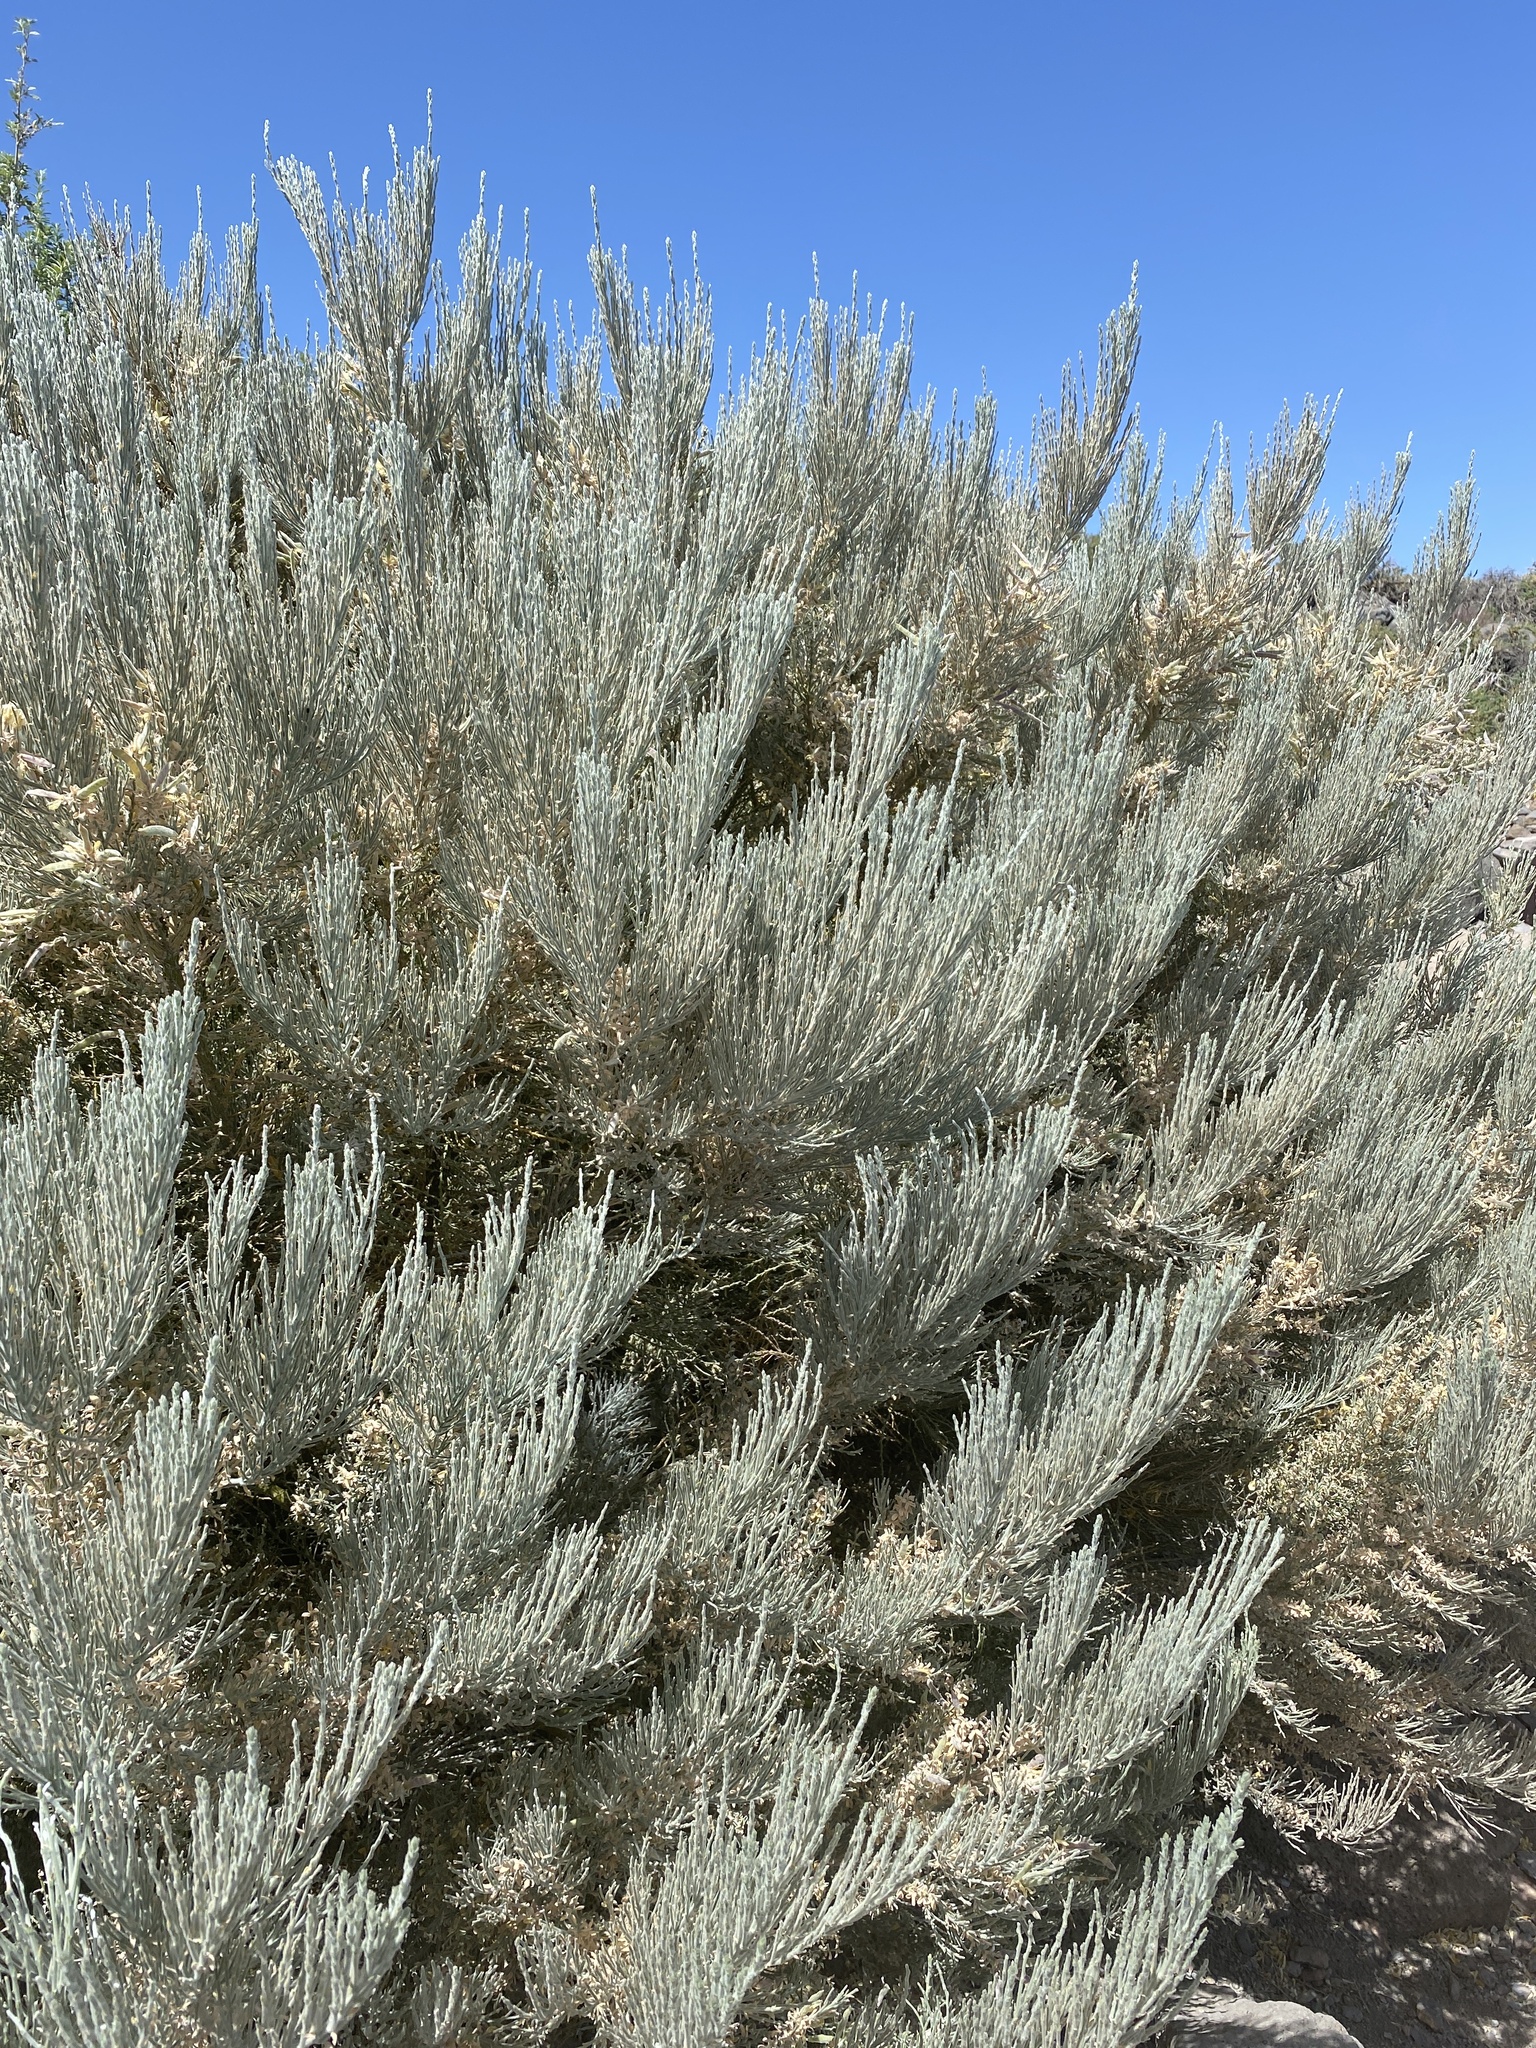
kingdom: Plantae
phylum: Tracheophyta
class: Magnoliopsida
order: Fabales
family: Fabaceae
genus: Genista
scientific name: Genista benehoavensis
